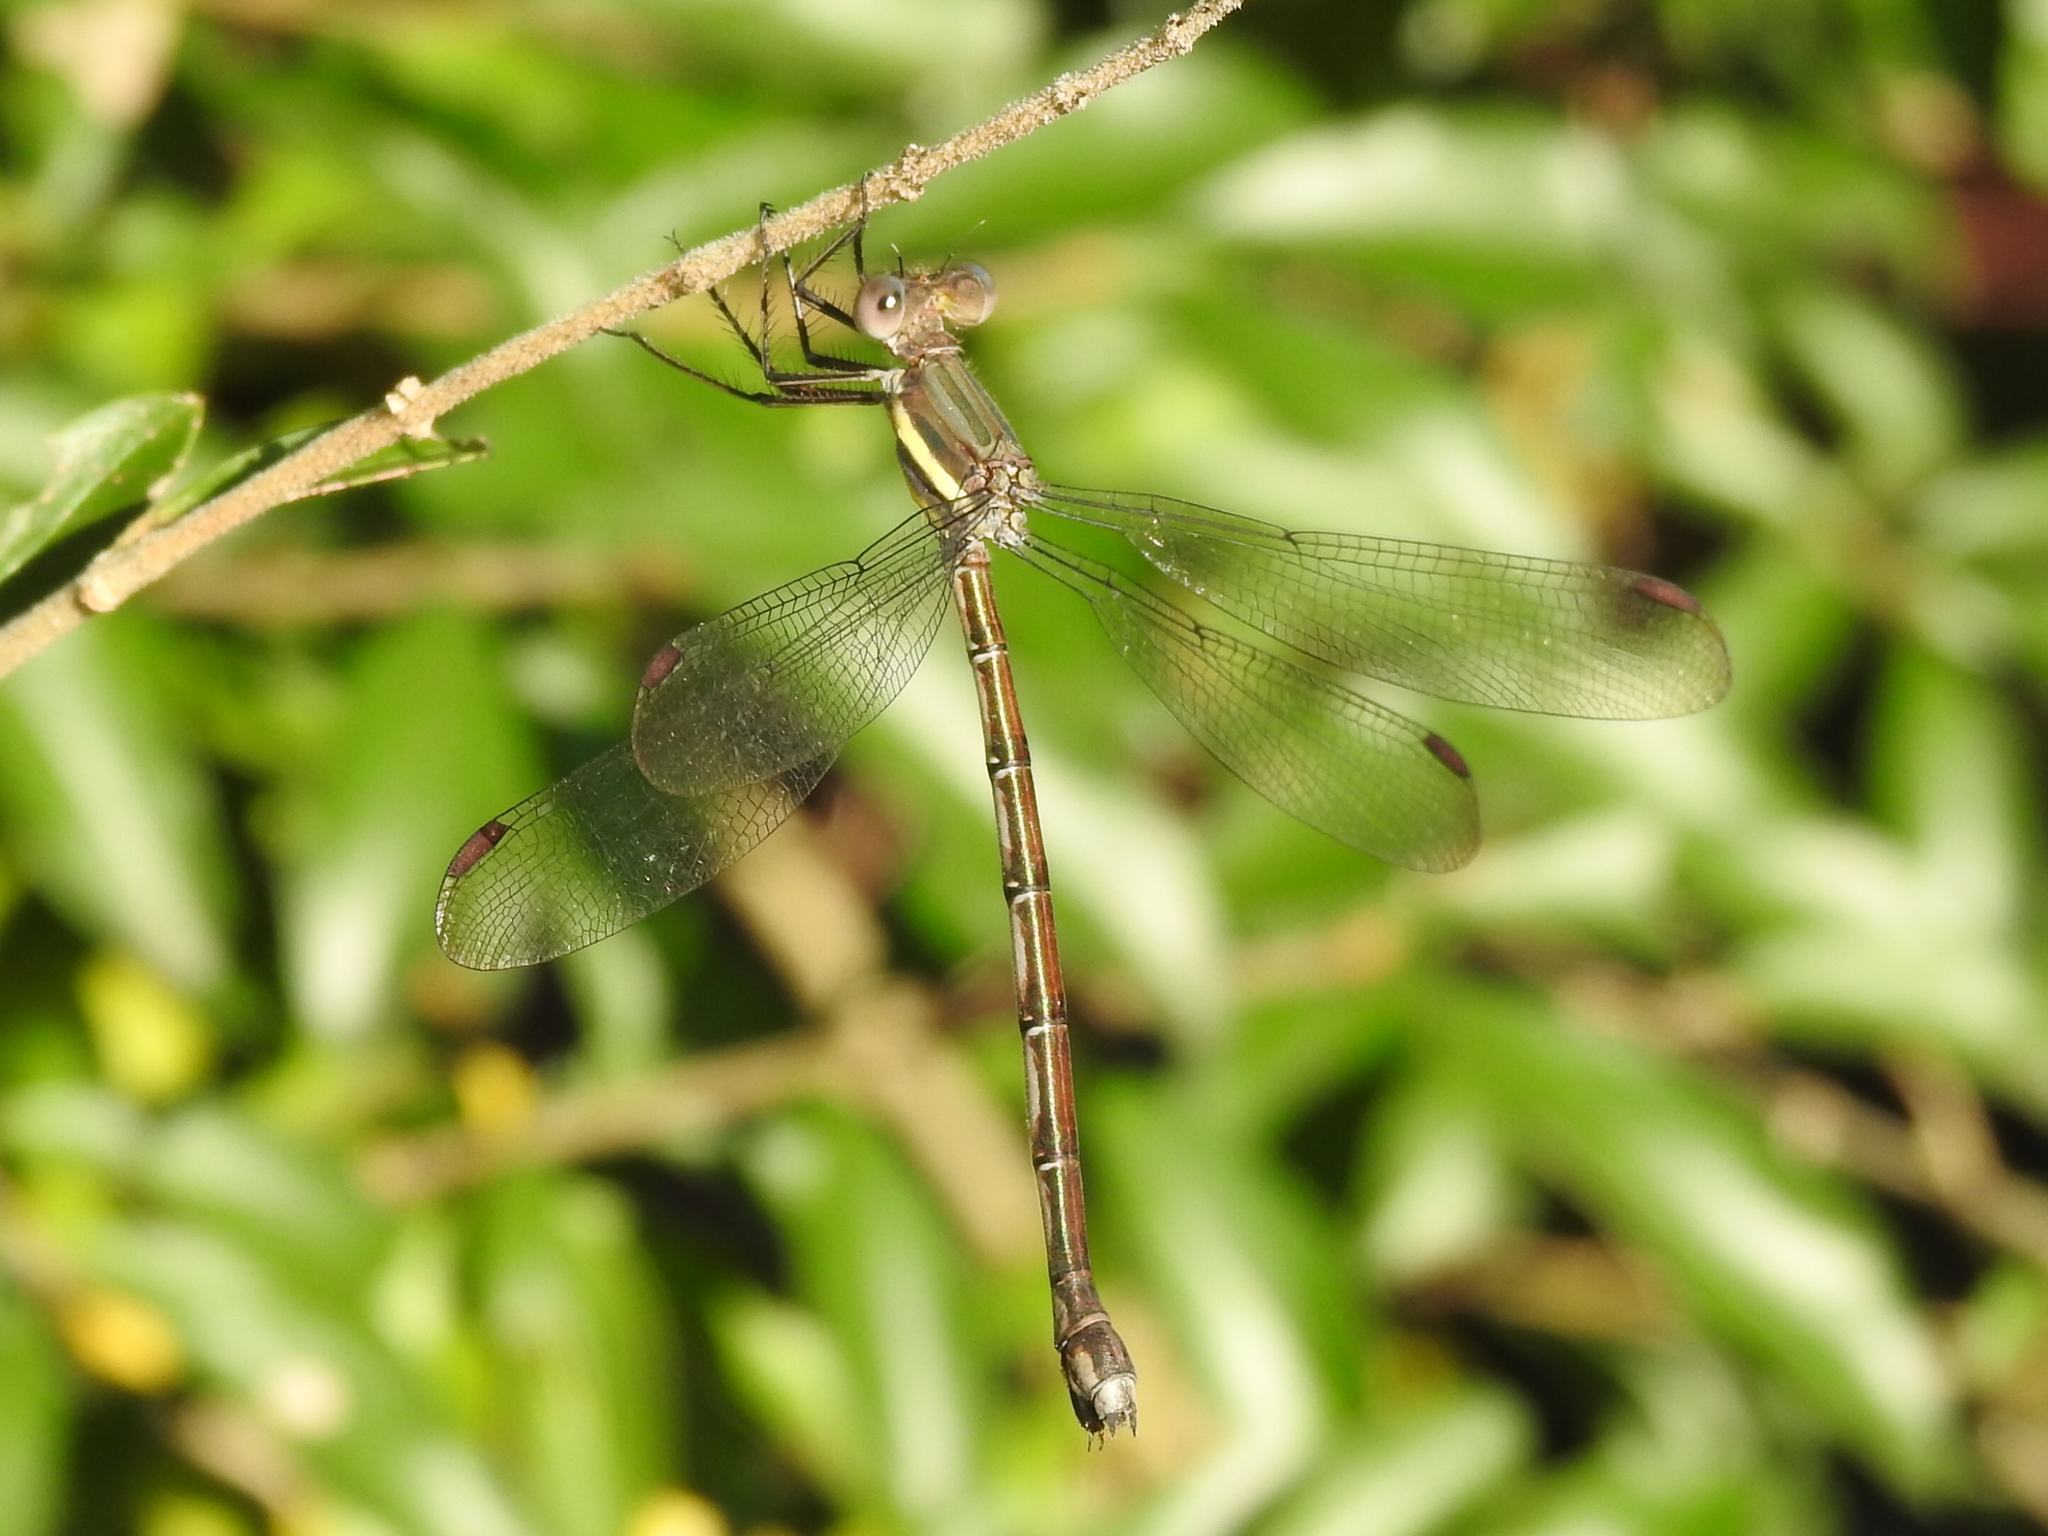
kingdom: Animalia
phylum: Arthropoda
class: Insecta
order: Odonata
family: Lestidae
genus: Archilestes
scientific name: Archilestes grandis
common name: Great spreadwing
